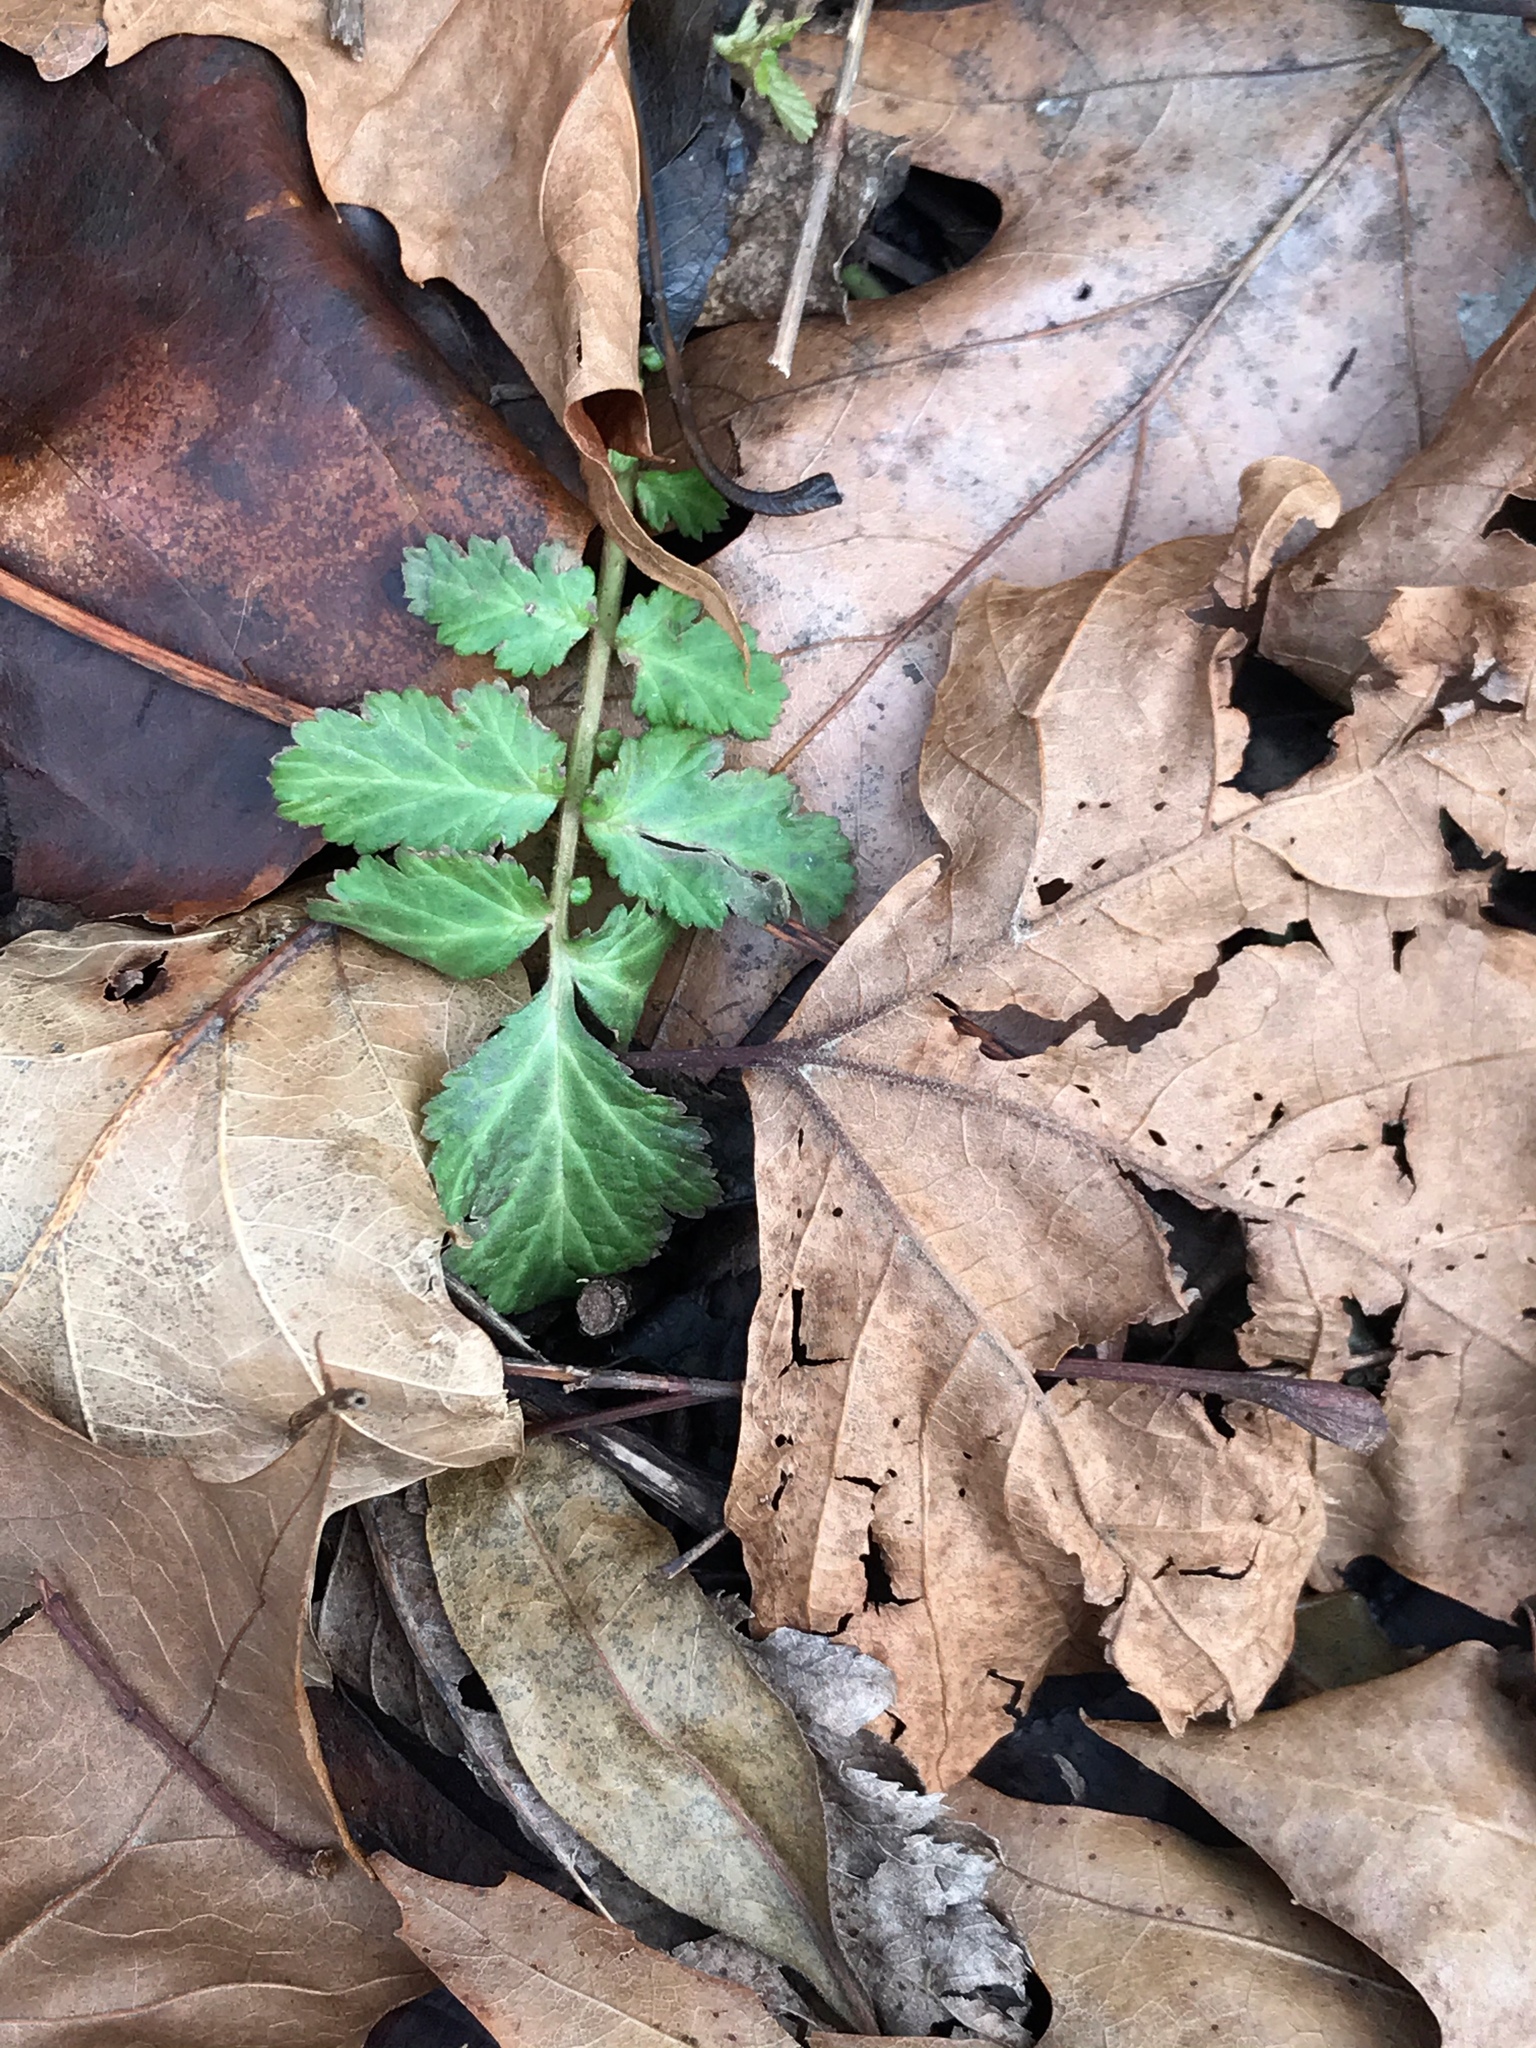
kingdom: Plantae
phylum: Tracheophyta
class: Magnoliopsida
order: Rosales
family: Rosaceae
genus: Geum
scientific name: Geum canadense
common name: White avens
